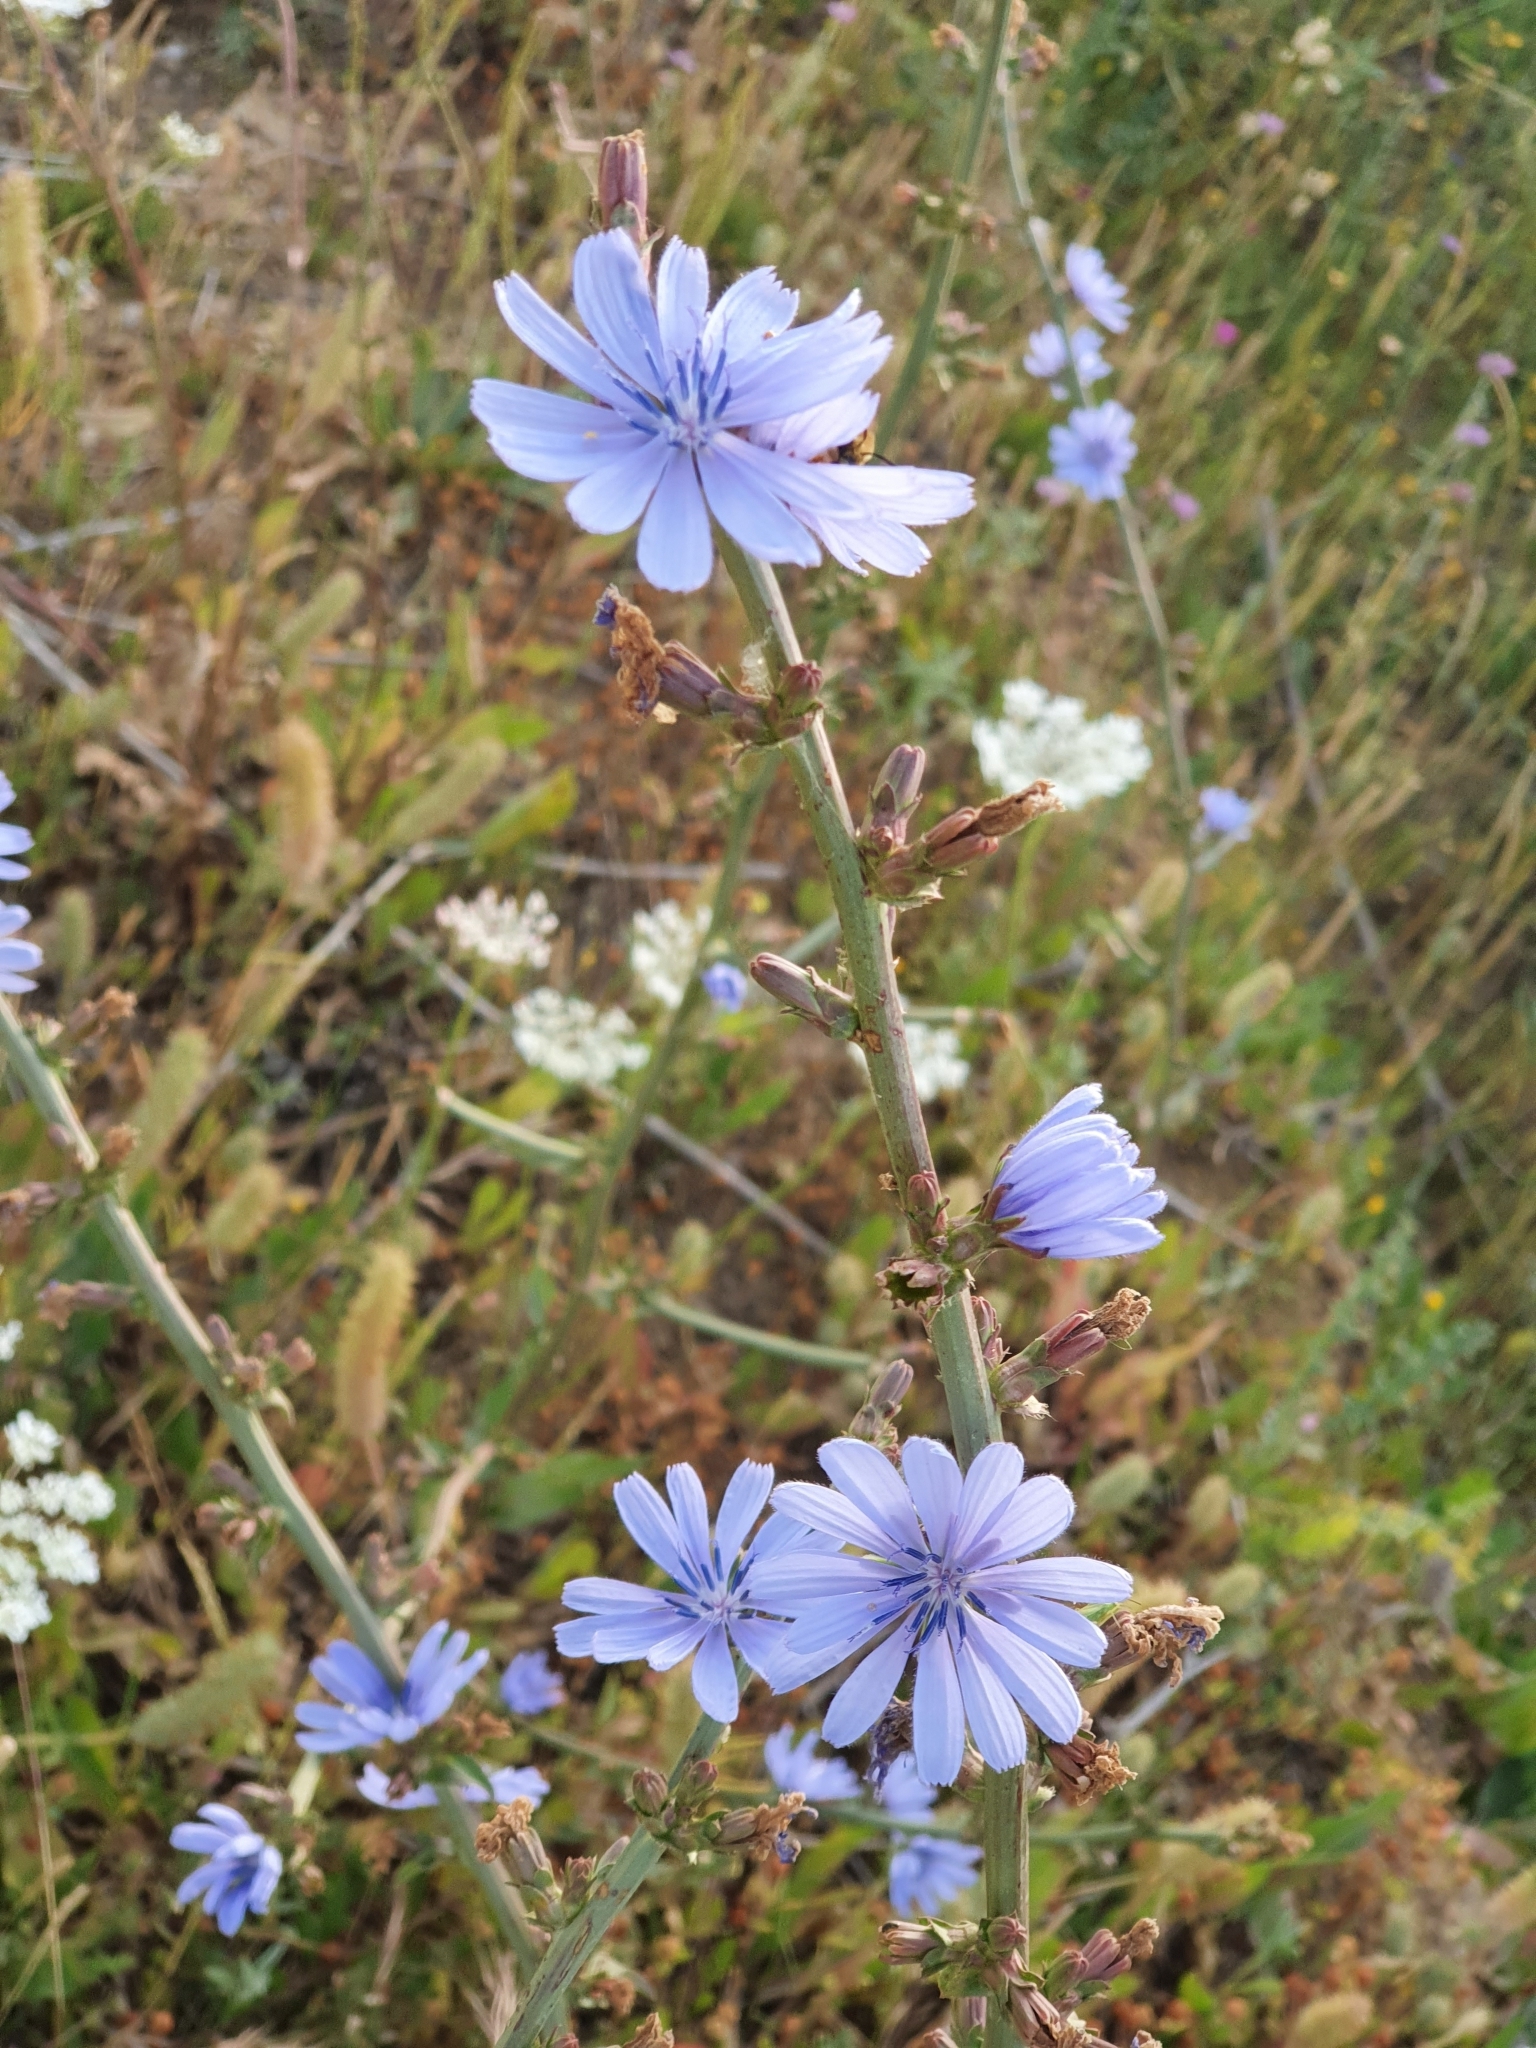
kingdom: Plantae
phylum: Tracheophyta
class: Magnoliopsida
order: Asterales
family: Asteraceae
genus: Cichorium
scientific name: Cichorium intybus
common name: Chicory
